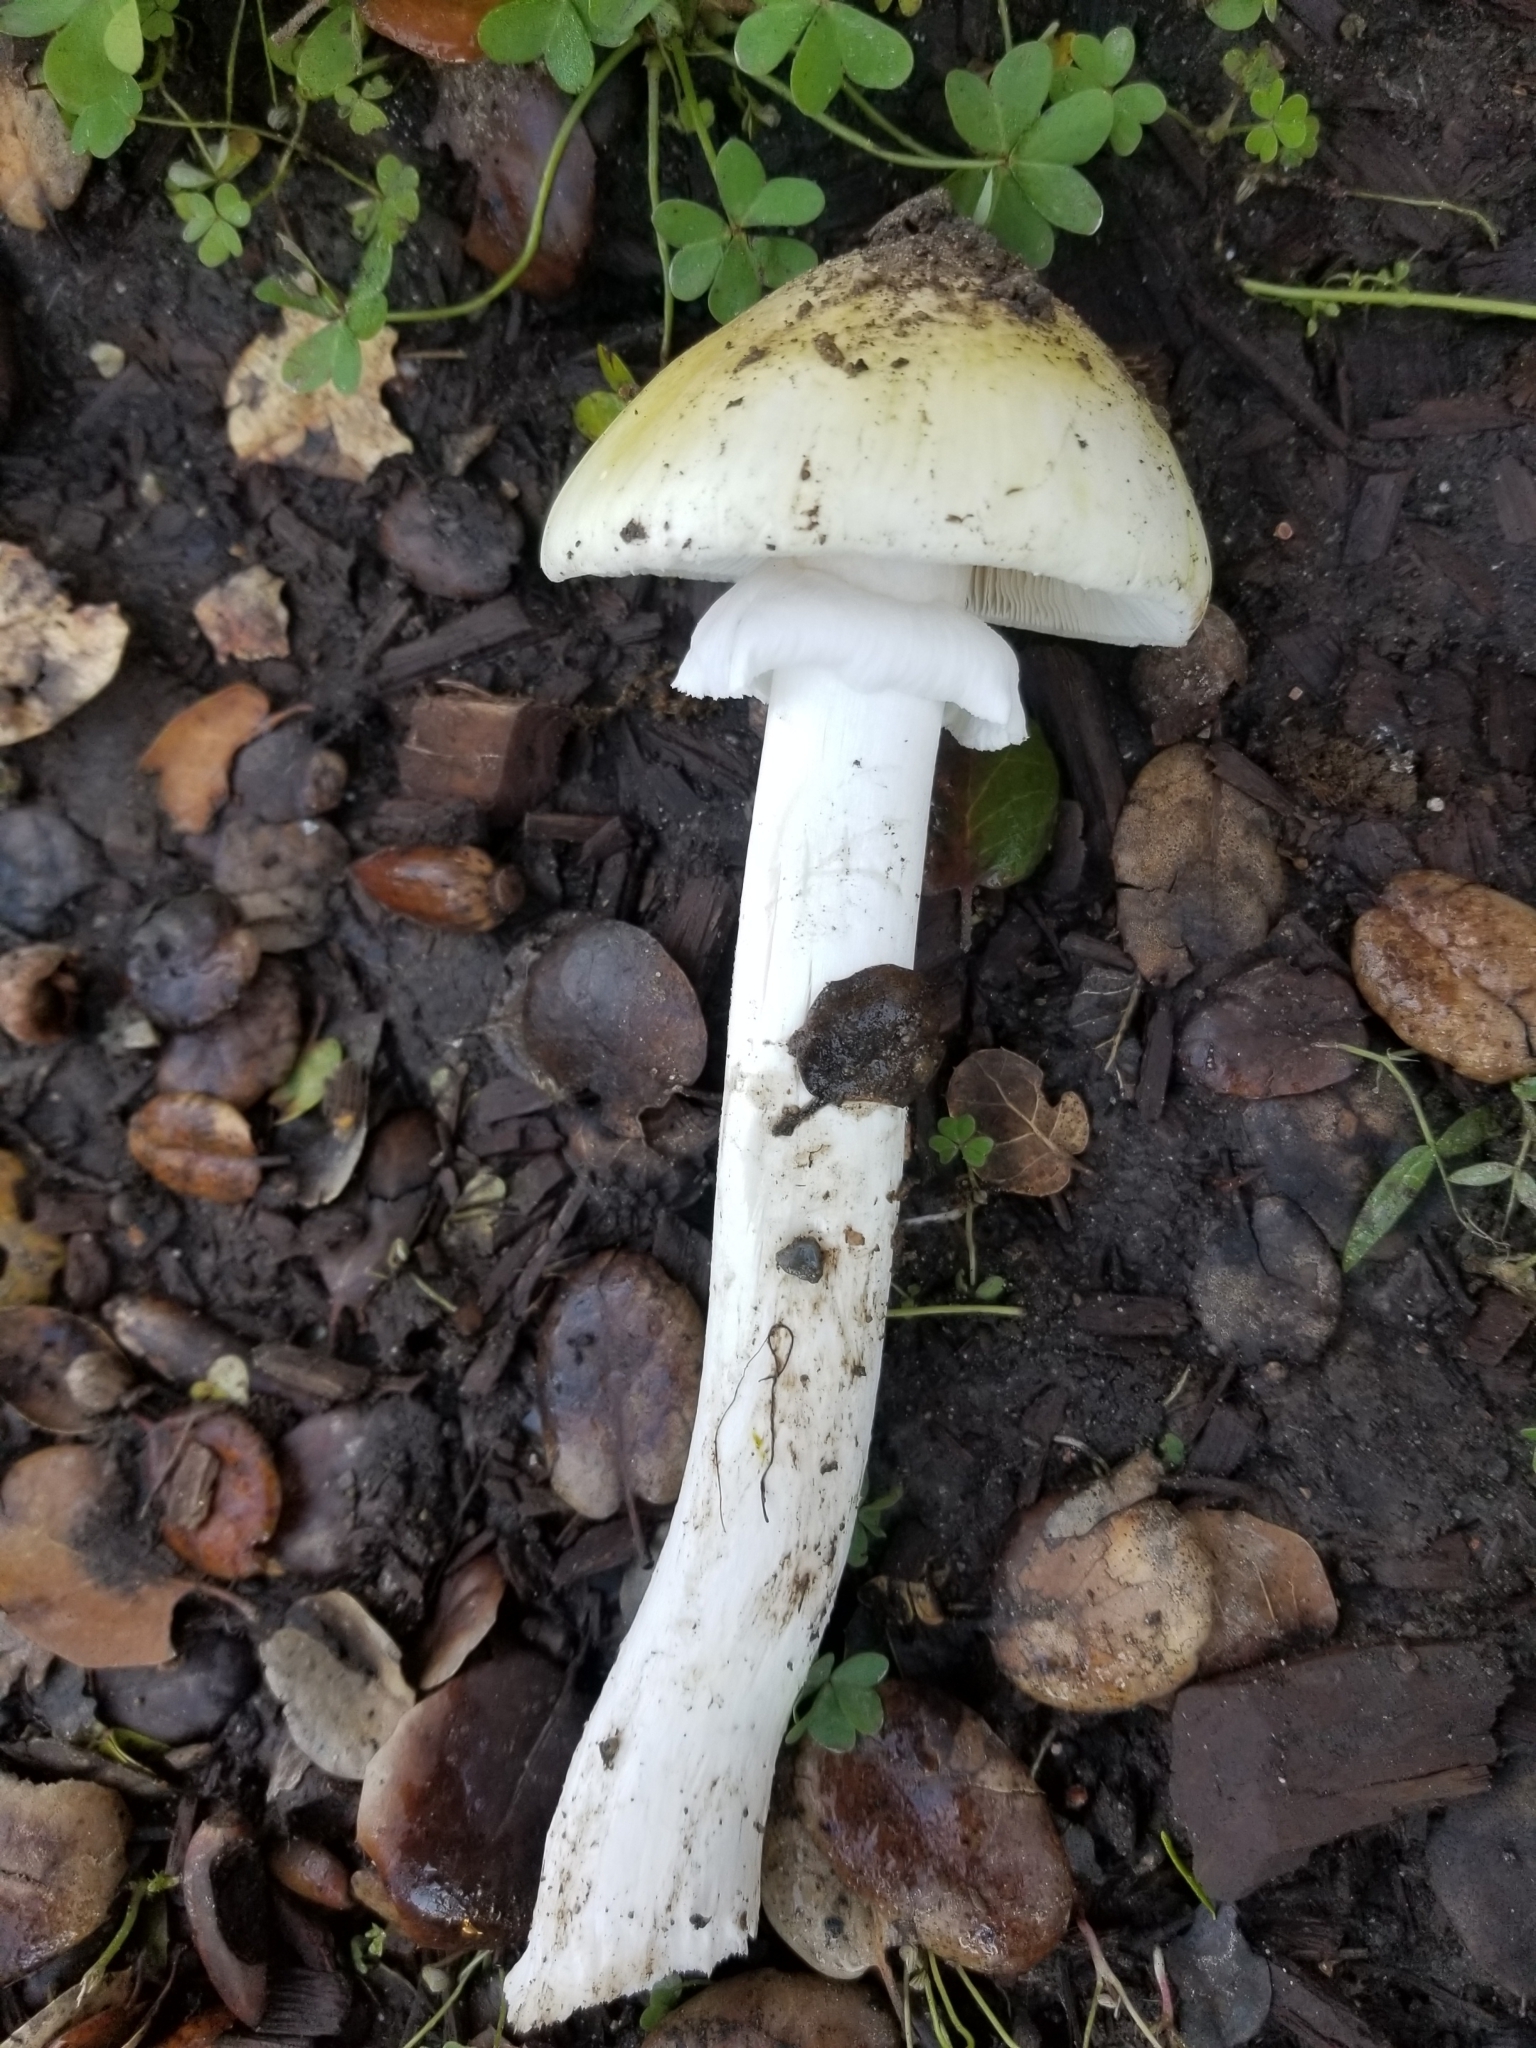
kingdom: Fungi
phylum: Basidiomycota
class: Agaricomycetes
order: Agaricales
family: Amanitaceae
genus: Amanita
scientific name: Amanita phalloides
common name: Death cap
